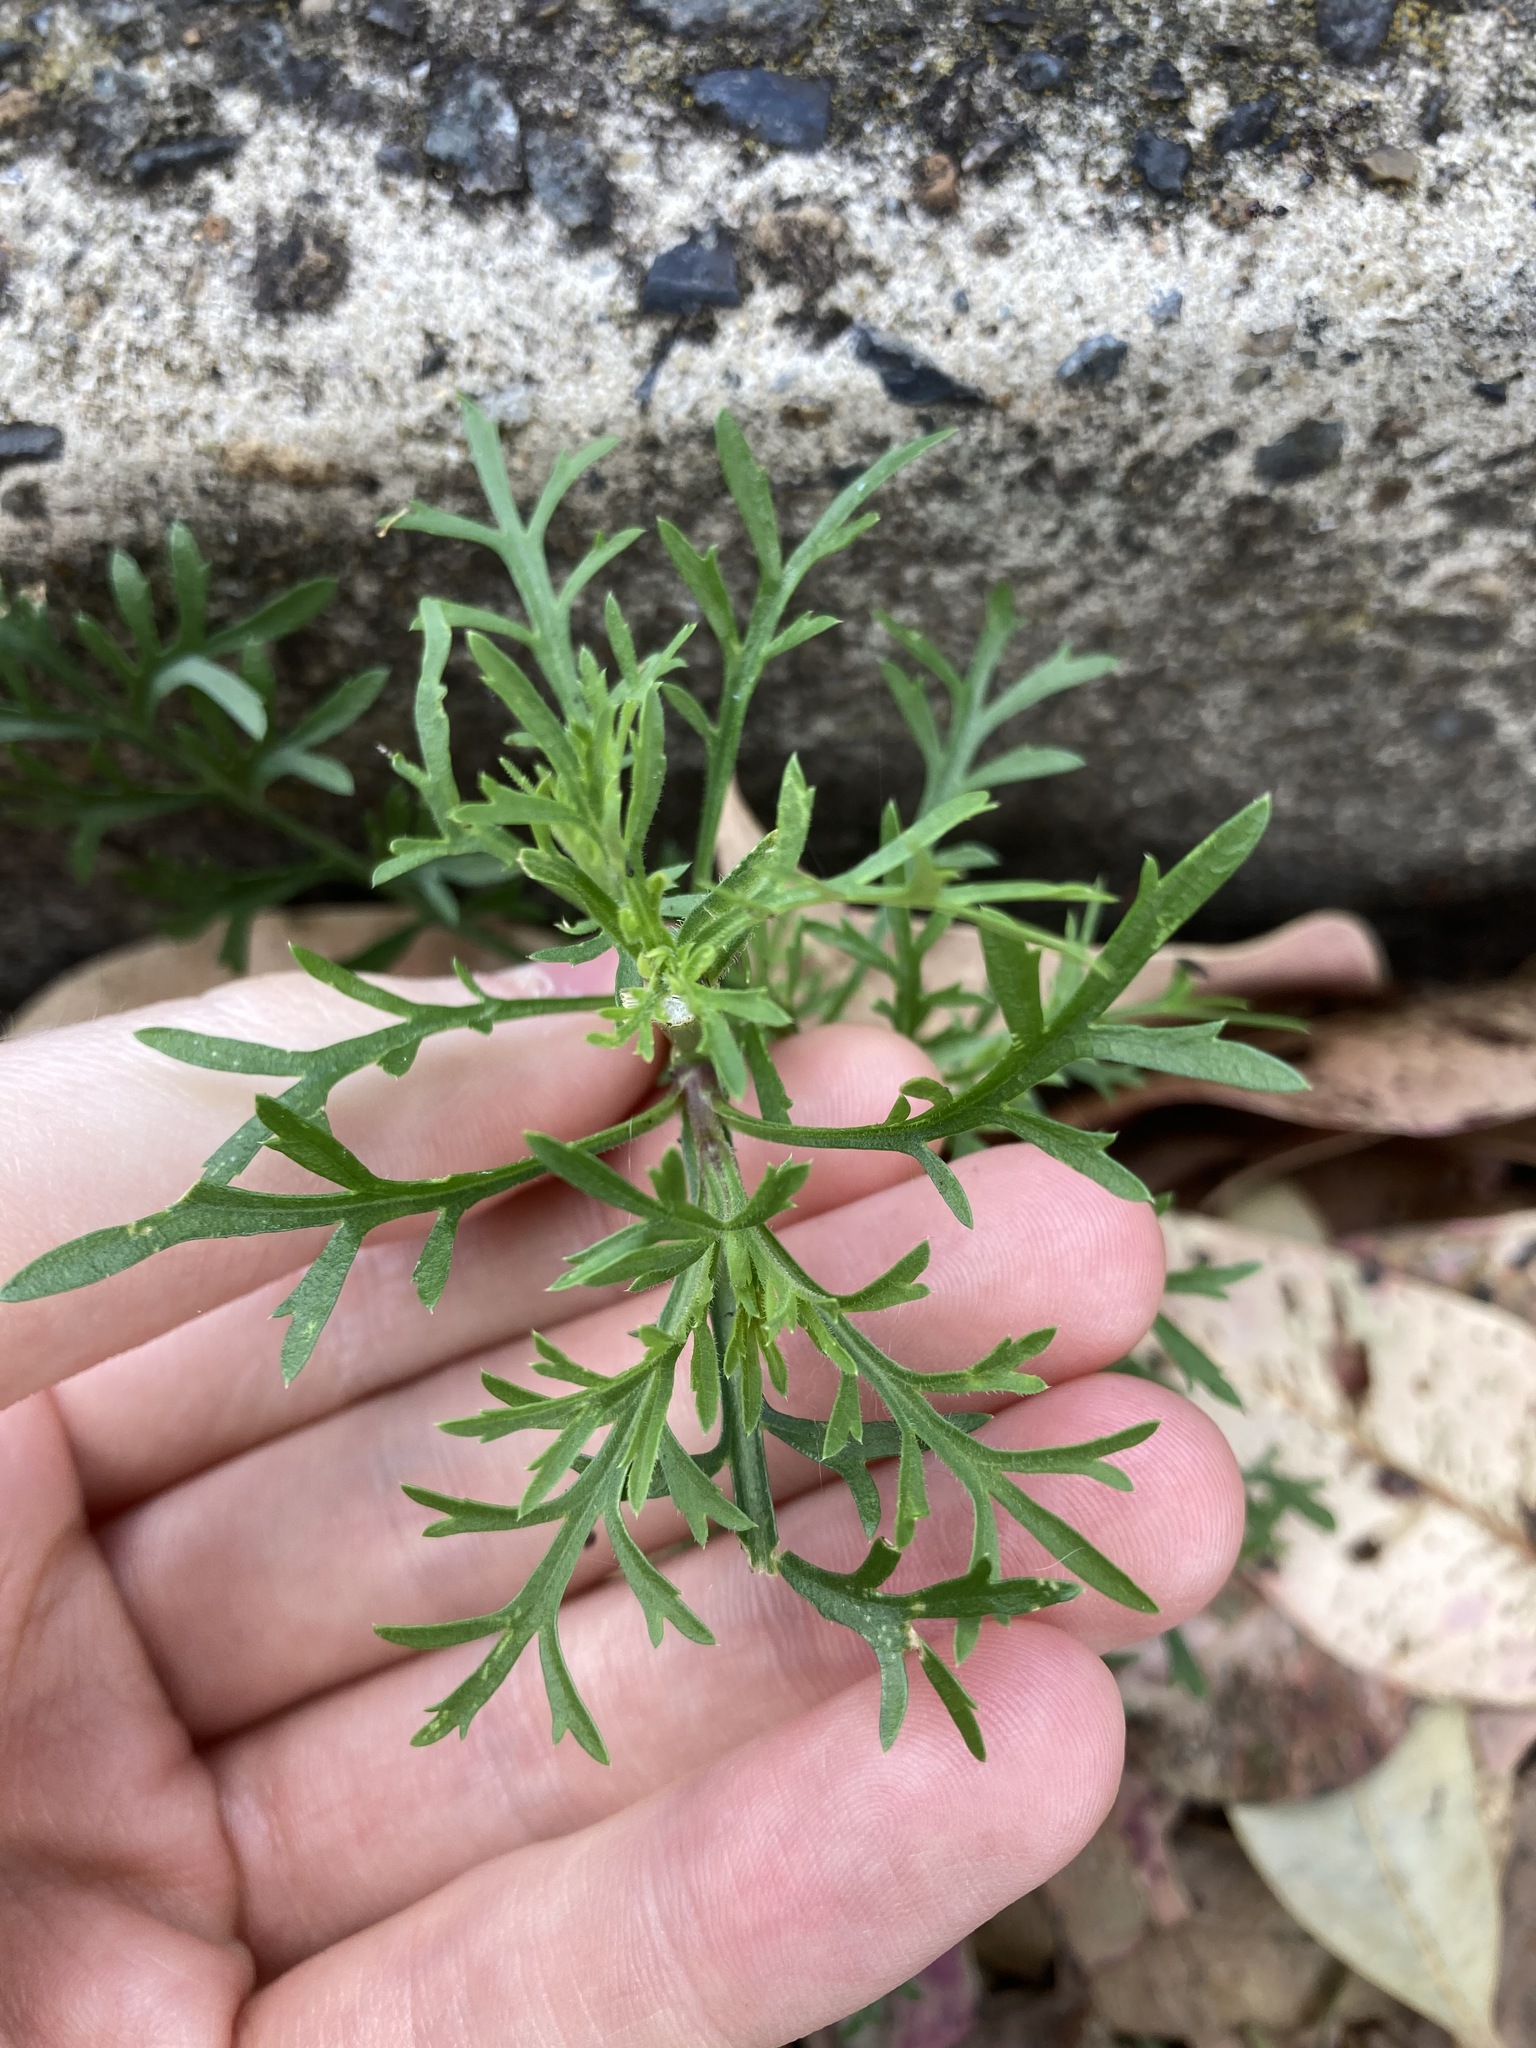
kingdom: Plantae
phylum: Tracheophyta
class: Magnoliopsida
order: Brassicales
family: Brassicaceae
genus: Lepidium
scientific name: Lepidium bonariense
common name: Argentine pepperwort
